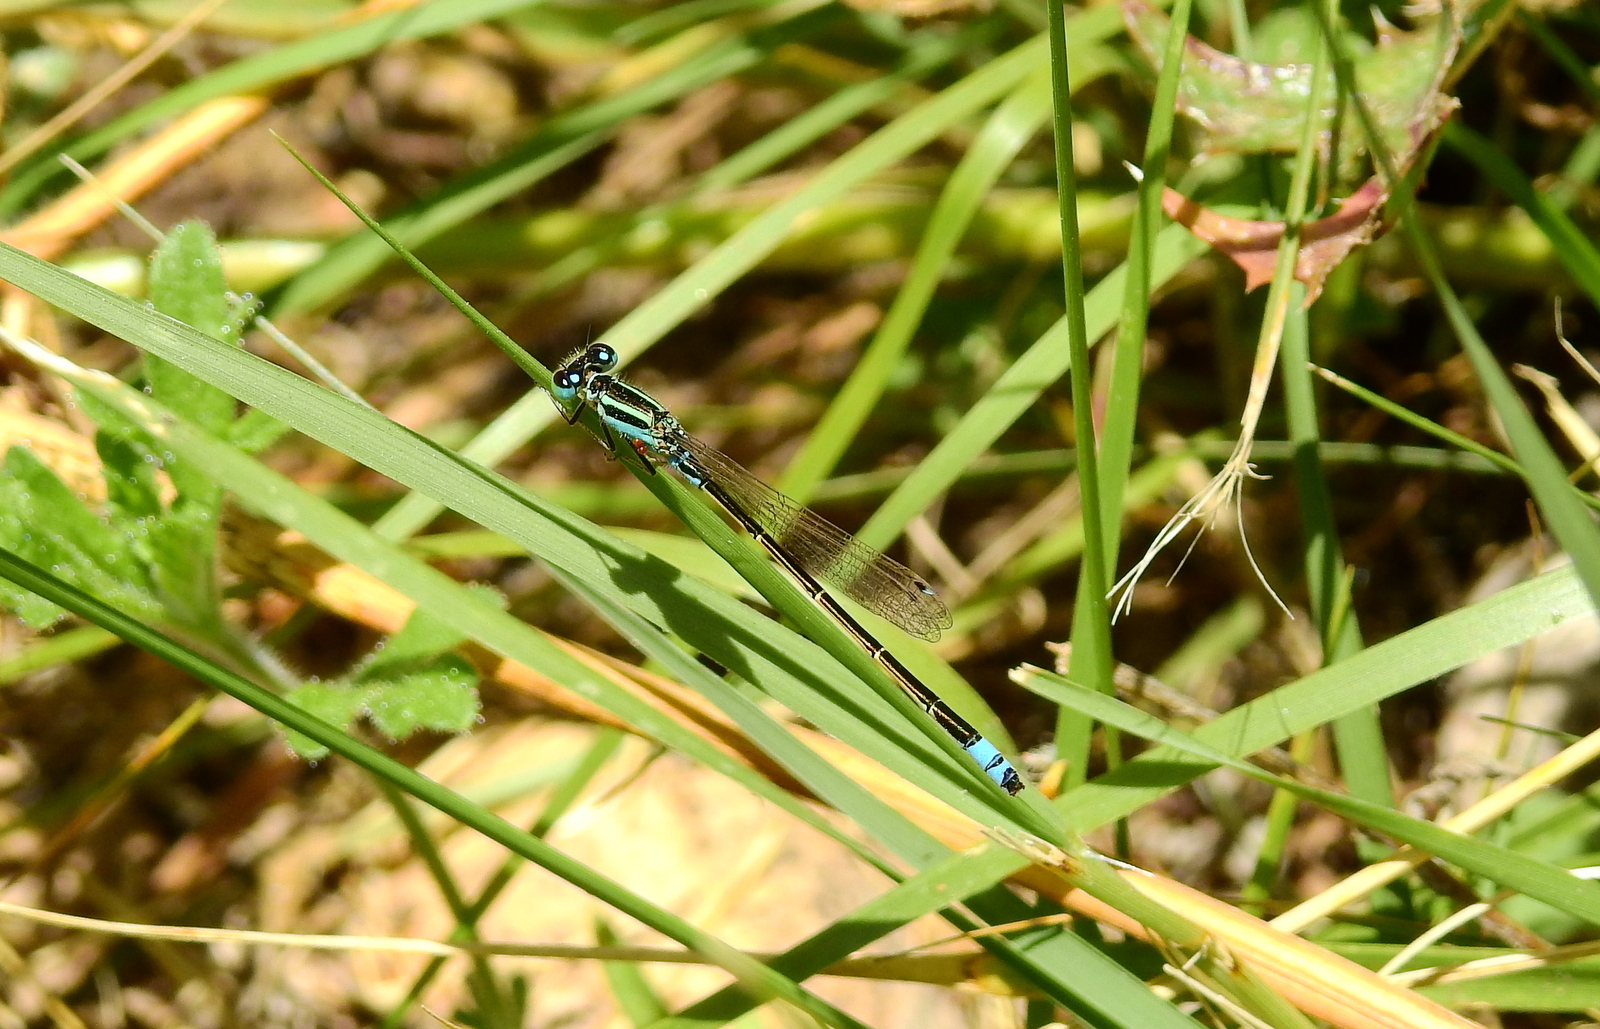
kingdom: Animalia
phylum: Arthropoda
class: Insecta
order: Odonata
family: Coenagrionidae
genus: Ischnura
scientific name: Ischnura fluviatilis
